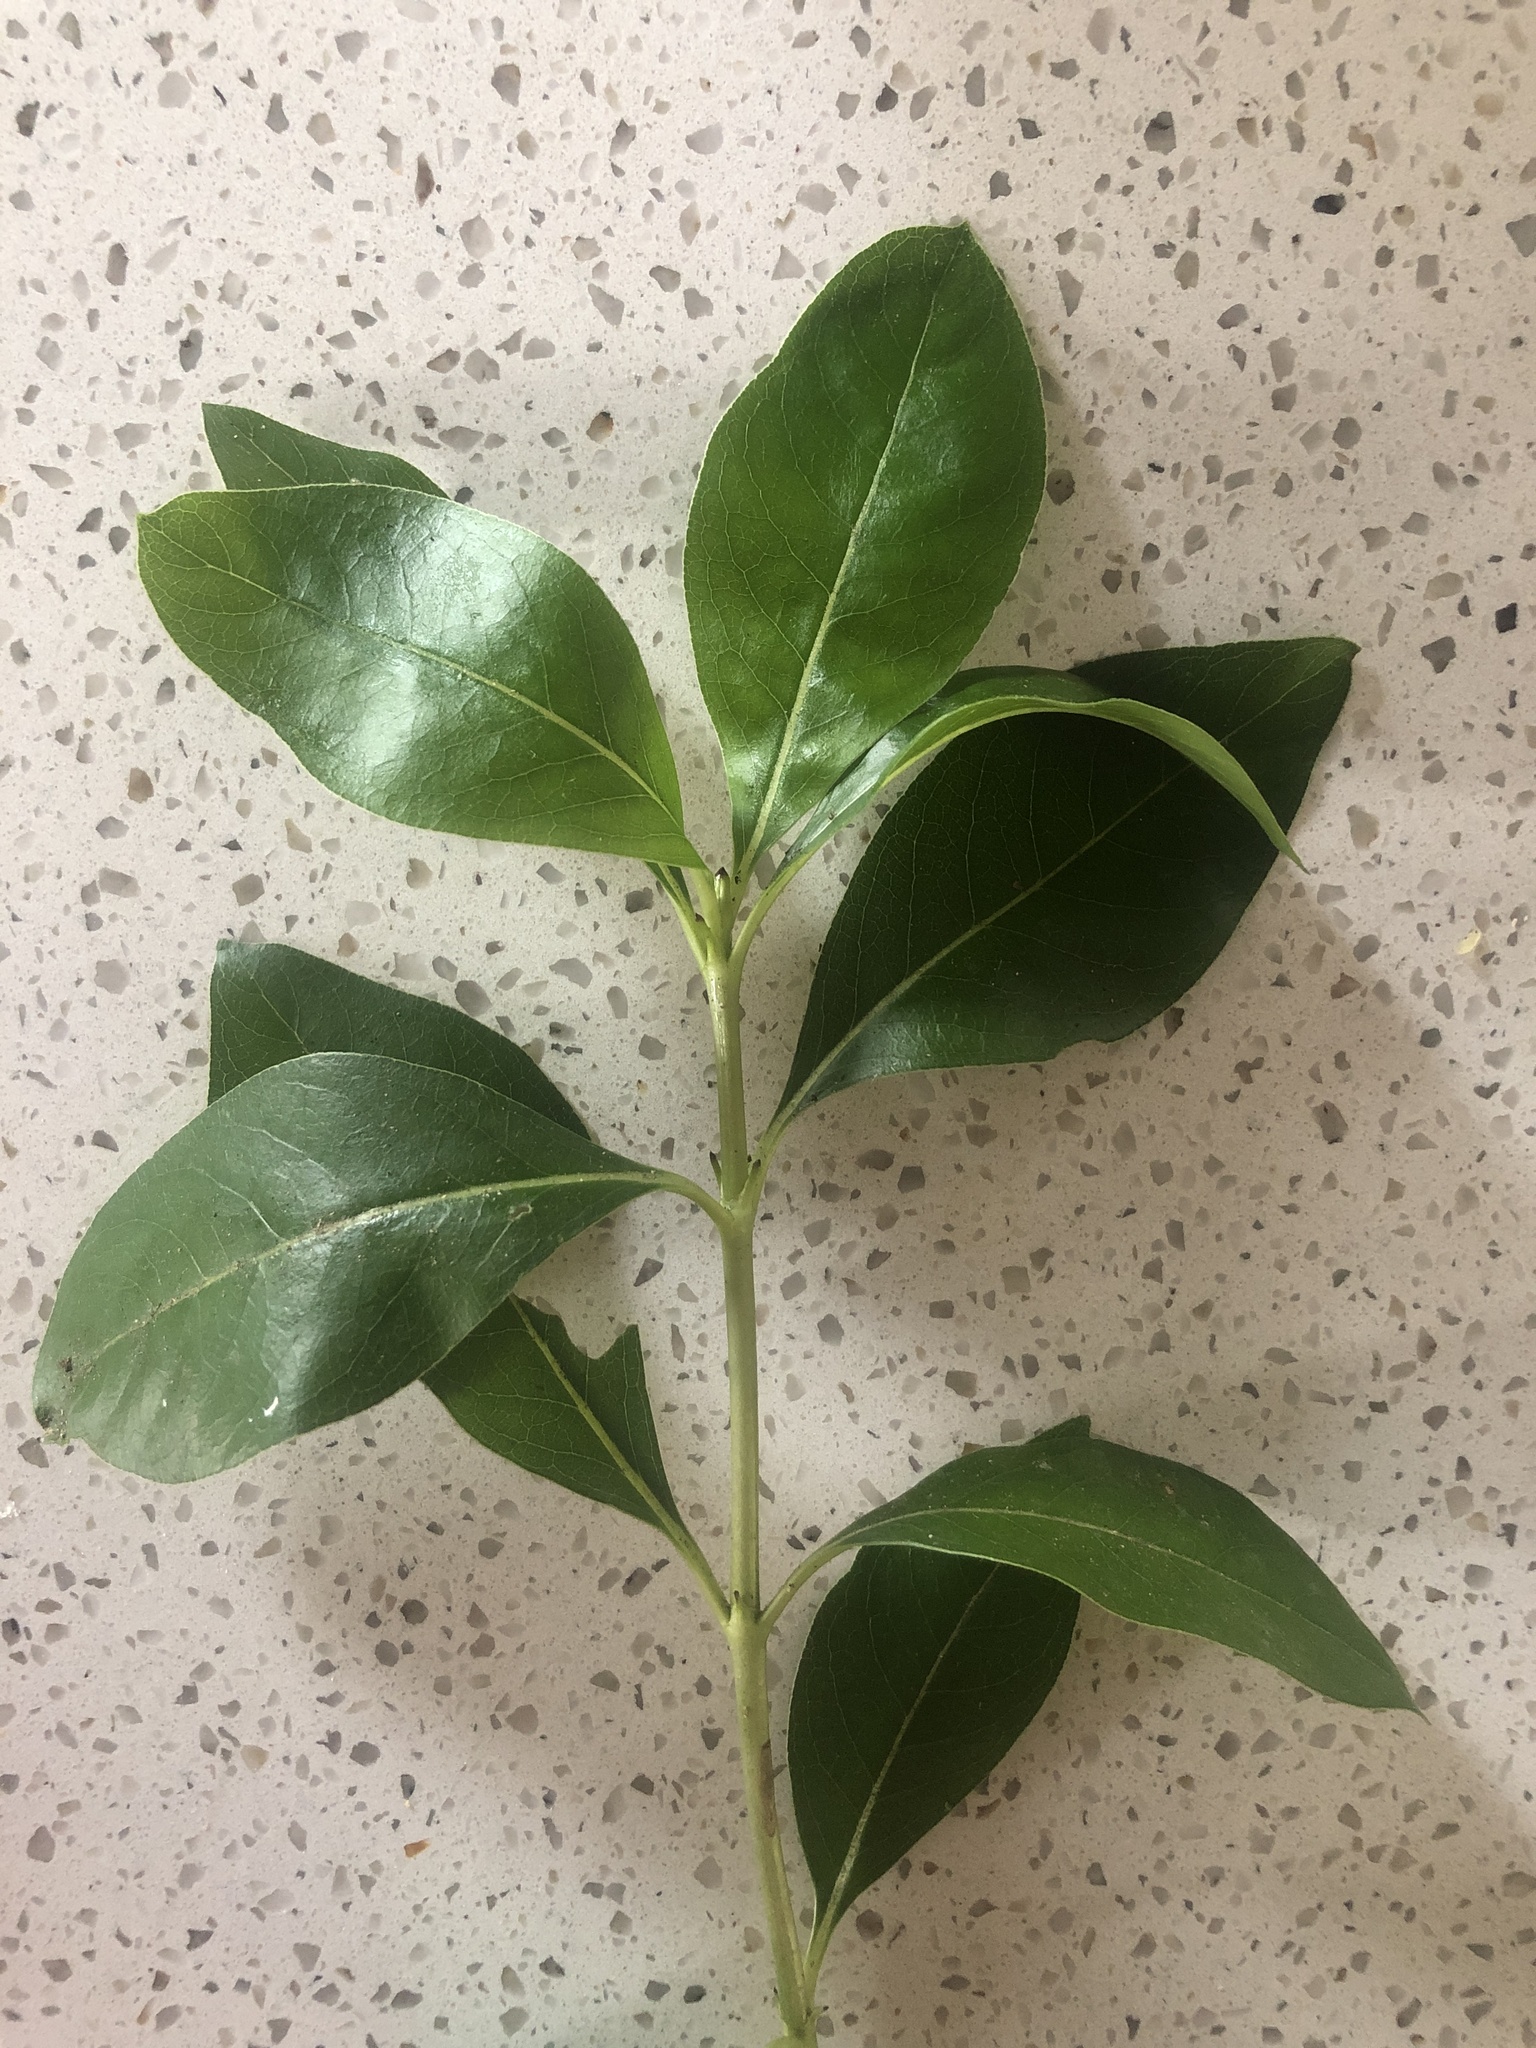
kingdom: Plantae
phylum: Tracheophyta
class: Magnoliopsida
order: Gentianales
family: Rubiaceae
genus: Coprosma
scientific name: Coprosma robusta
